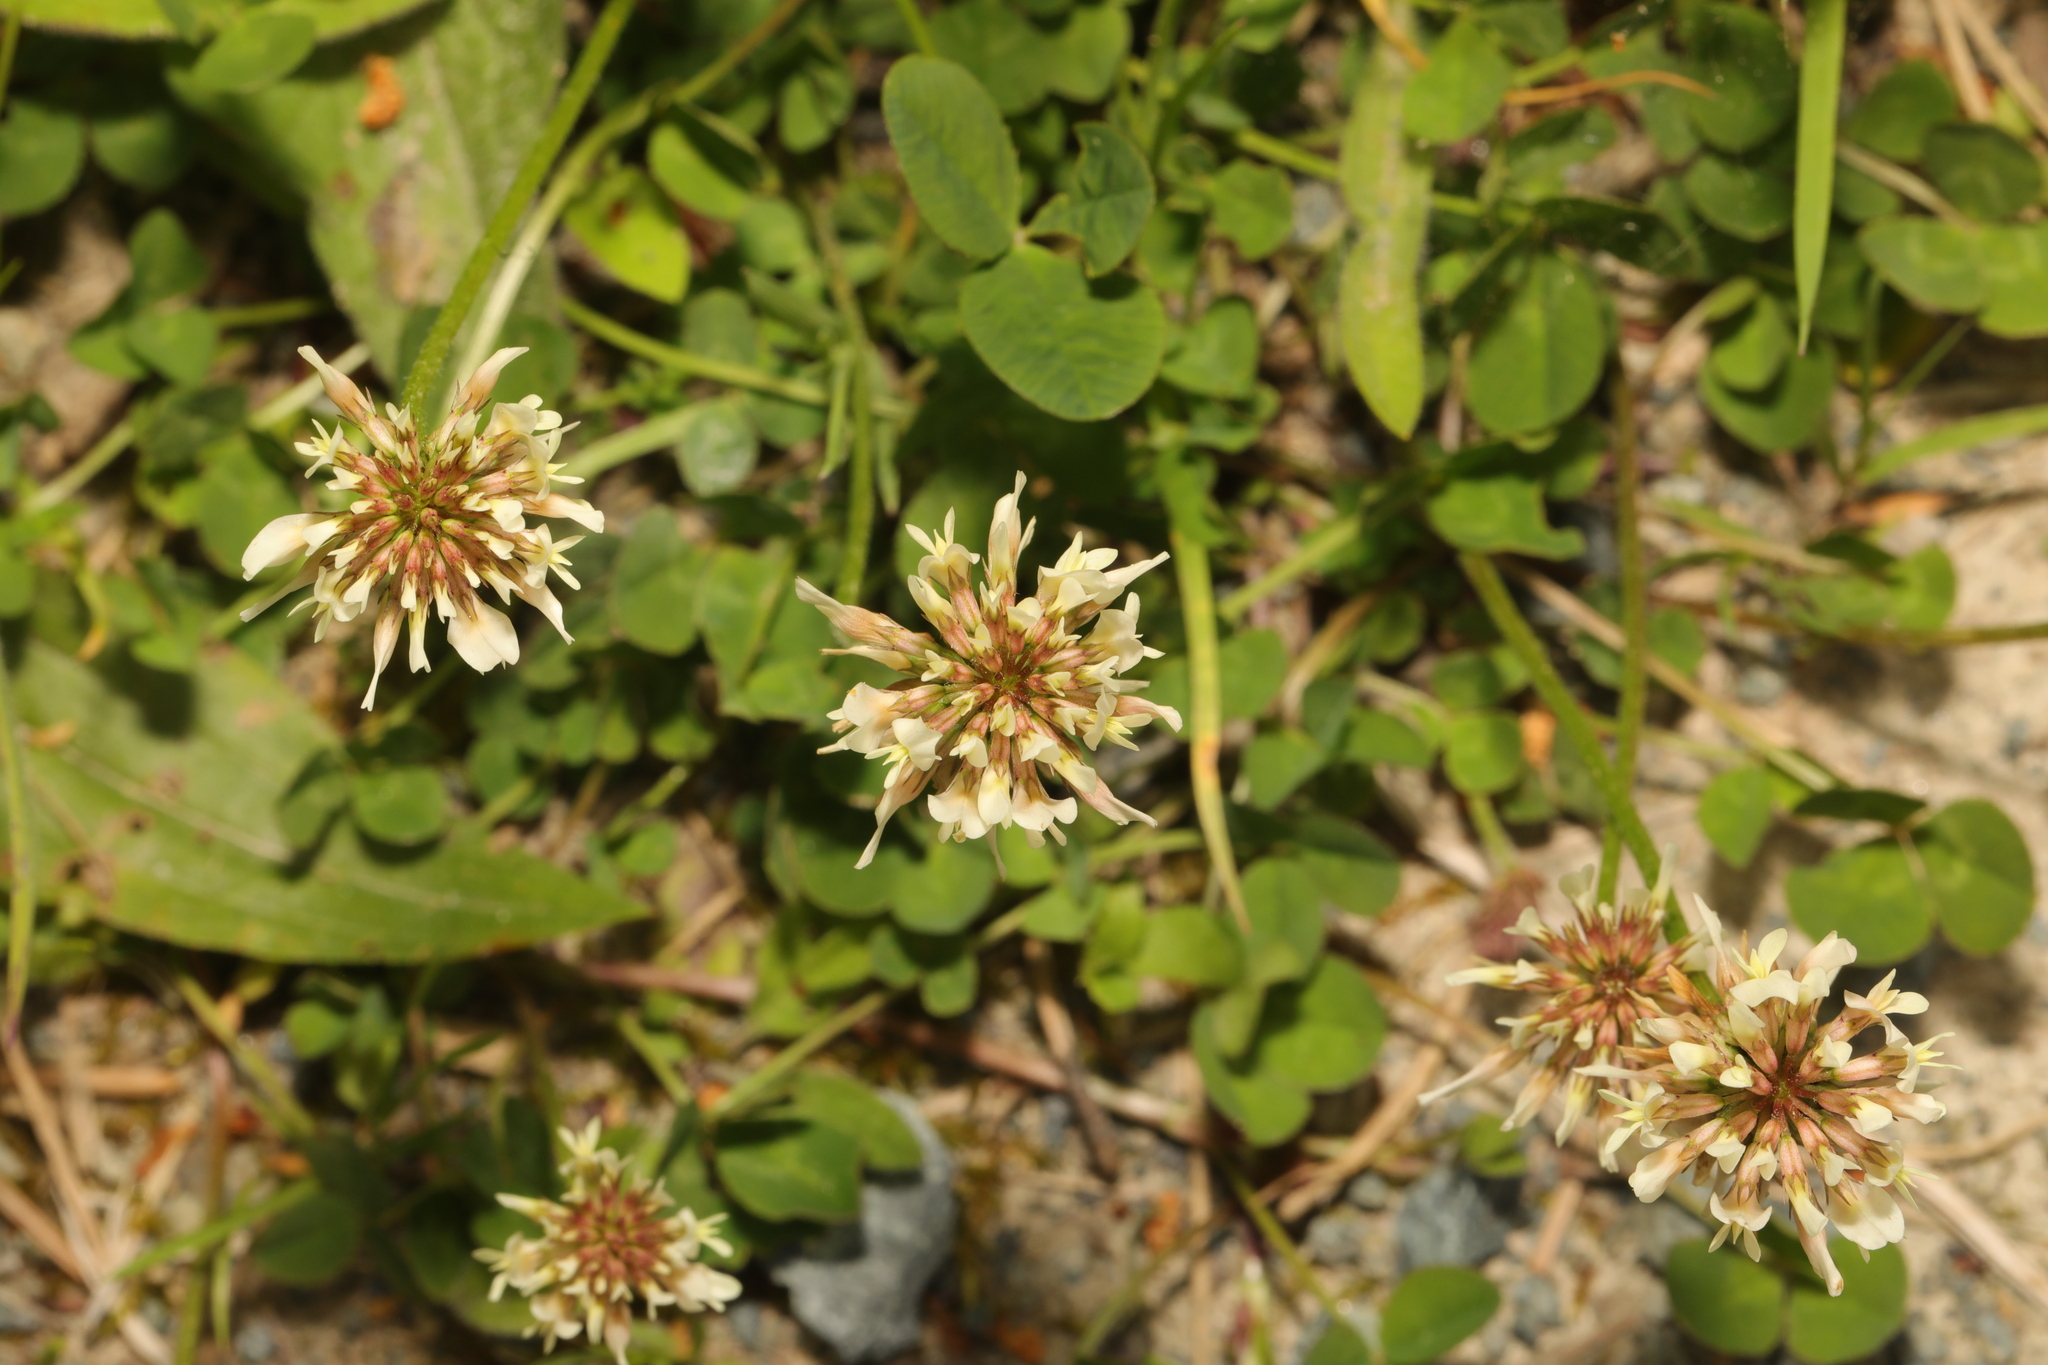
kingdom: Plantae
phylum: Tracheophyta
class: Magnoliopsida
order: Fabales
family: Fabaceae
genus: Trifolium
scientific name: Trifolium repens
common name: White clover
